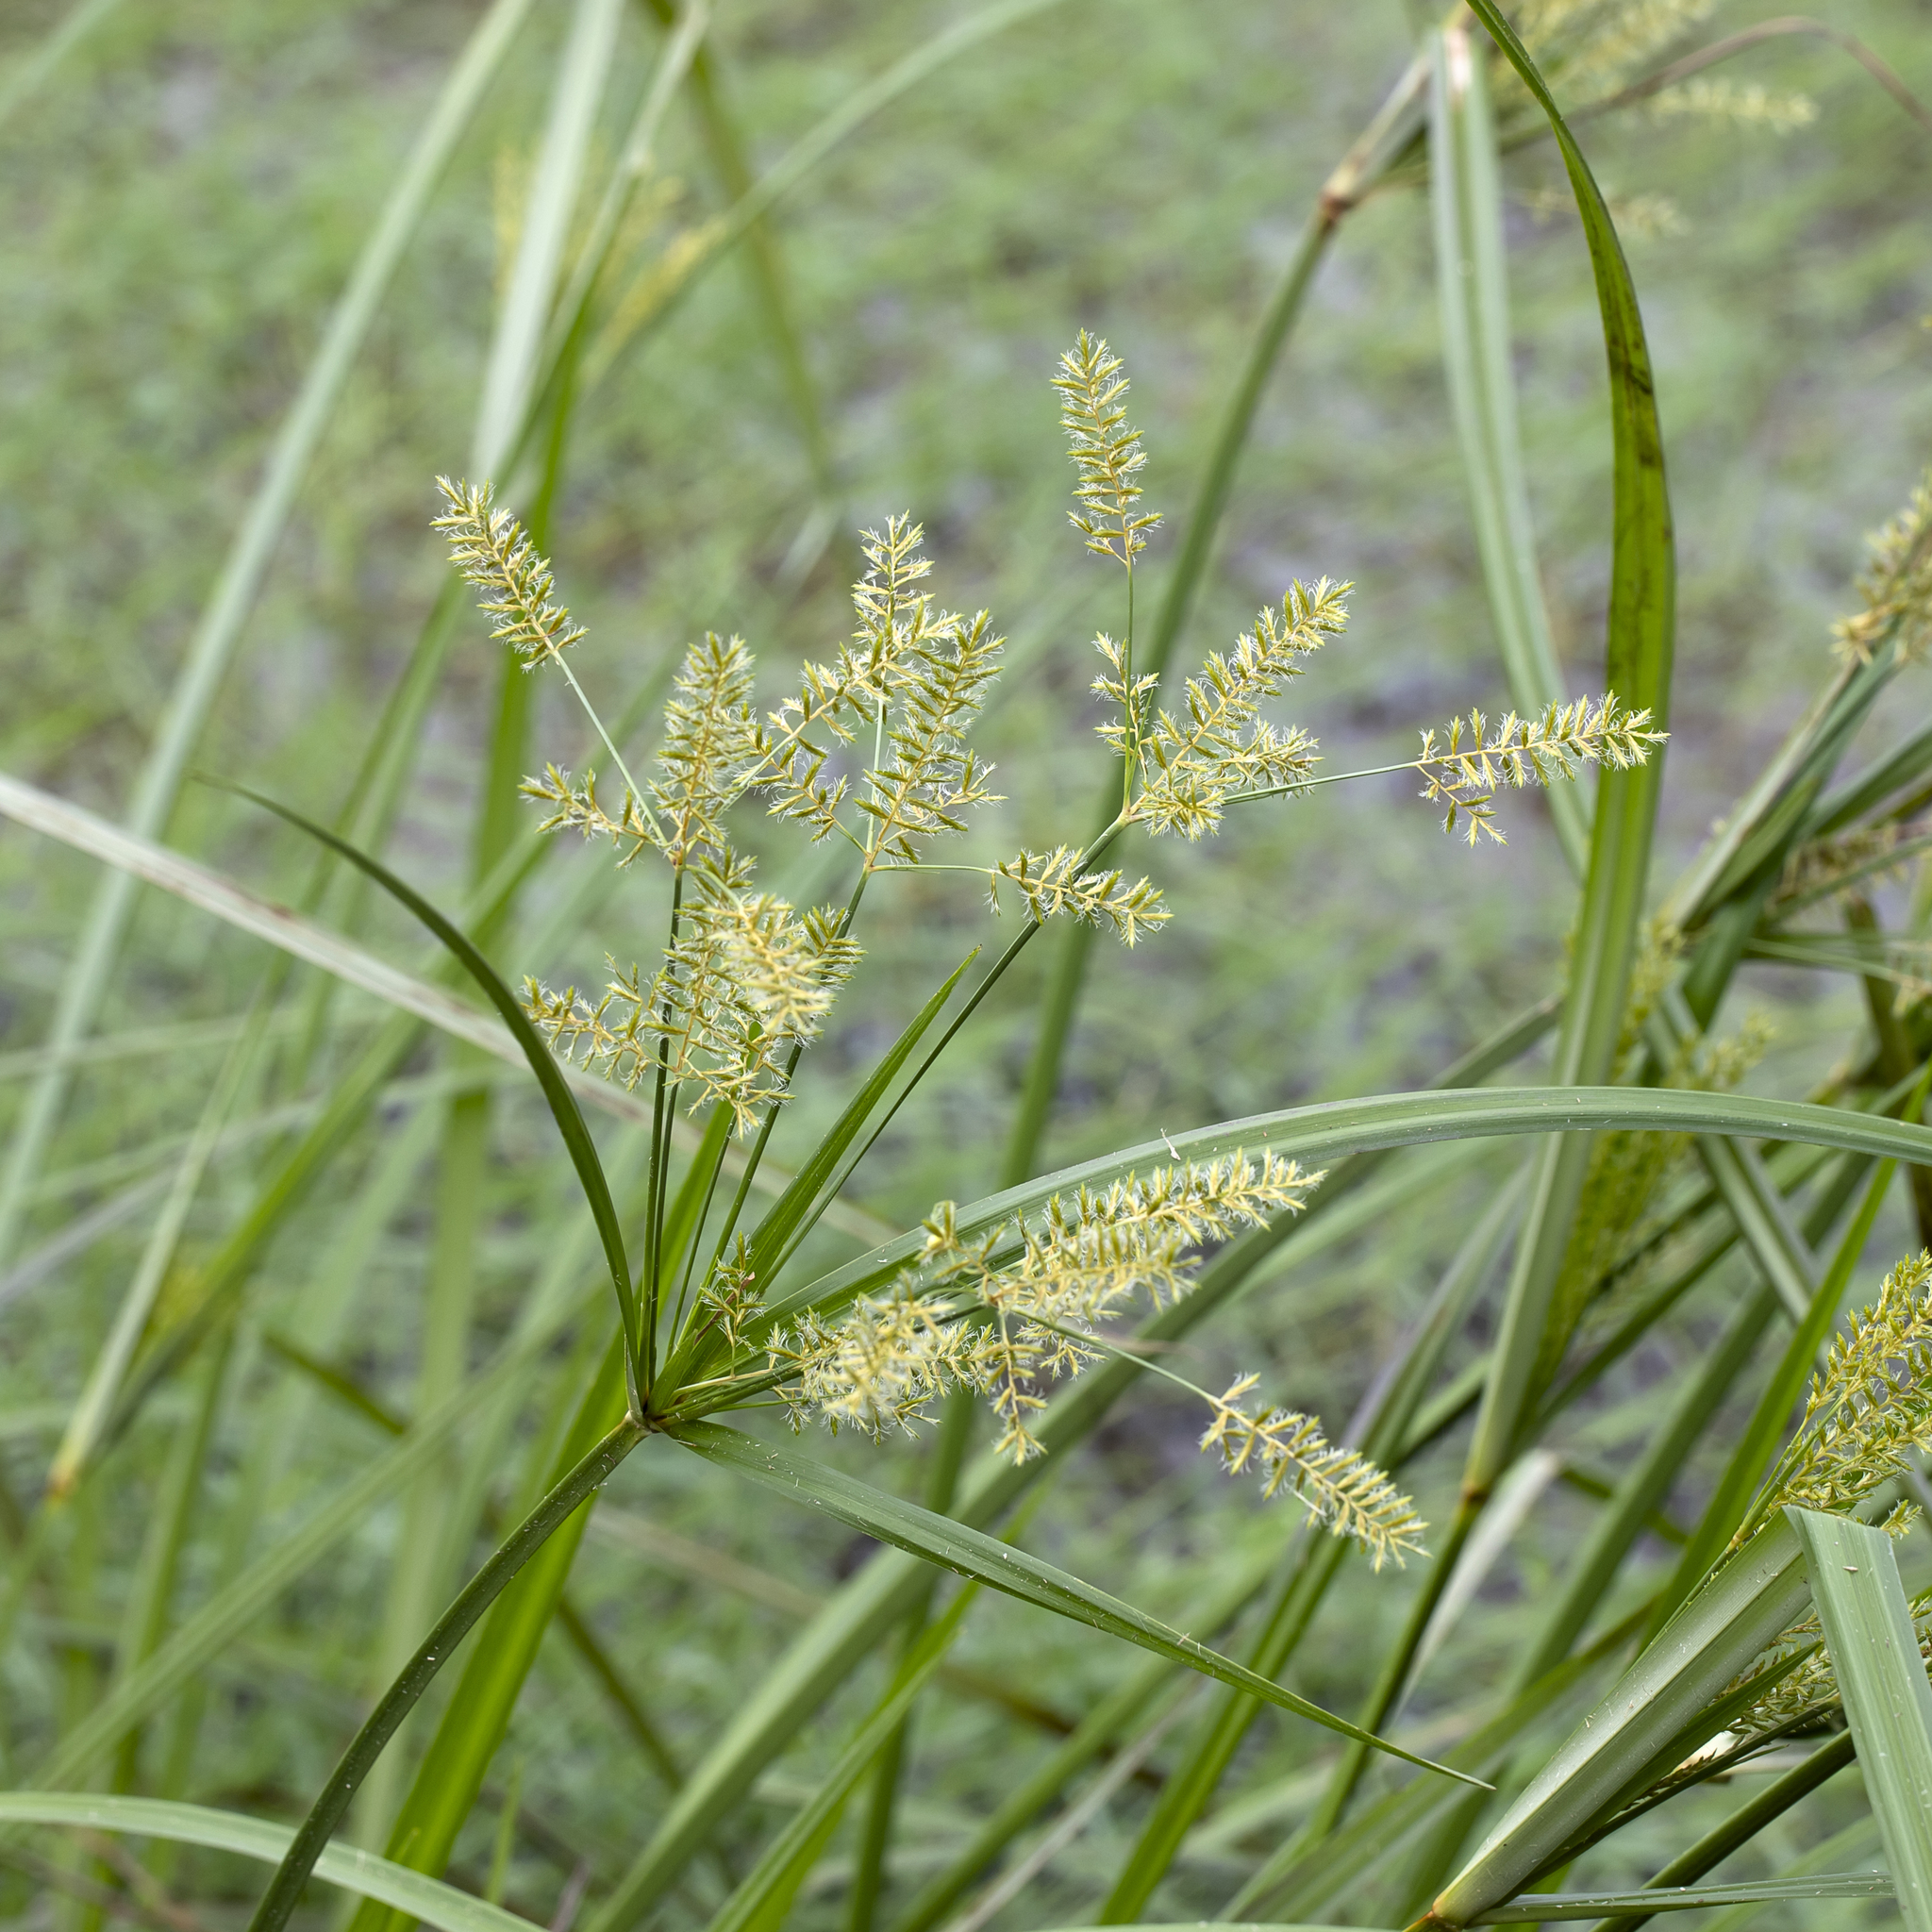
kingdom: Plantae
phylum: Tracheophyta
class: Liliopsida
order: Poales
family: Cyperaceae
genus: Cyperus
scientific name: Cyperus exaltatus
